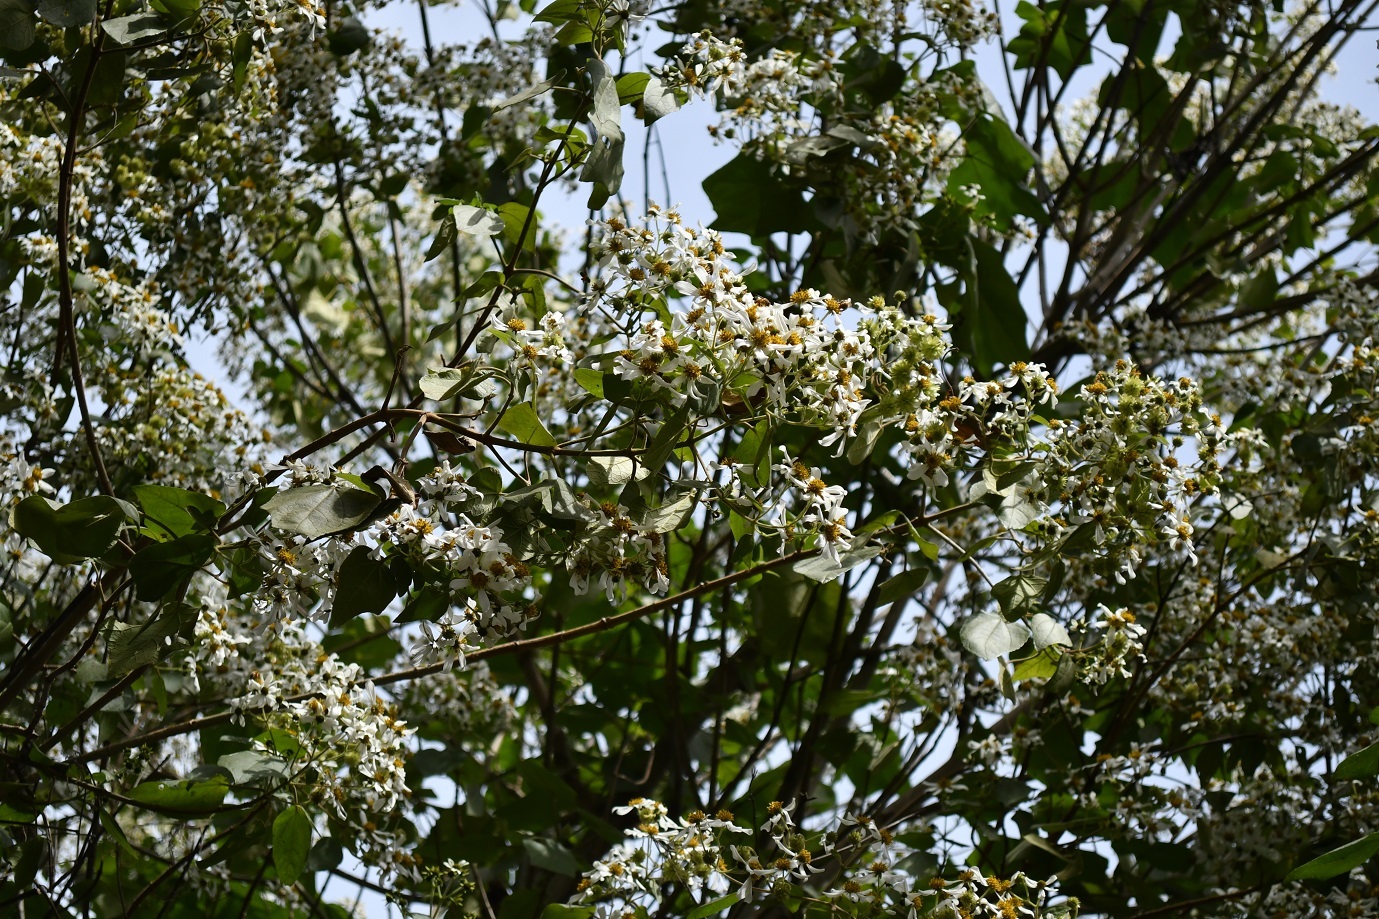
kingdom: Plantae
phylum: Tracheophyta
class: Magnoliopsida
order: Asterales
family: Asteraceae
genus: Montanoa
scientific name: Montanoa leucantha
